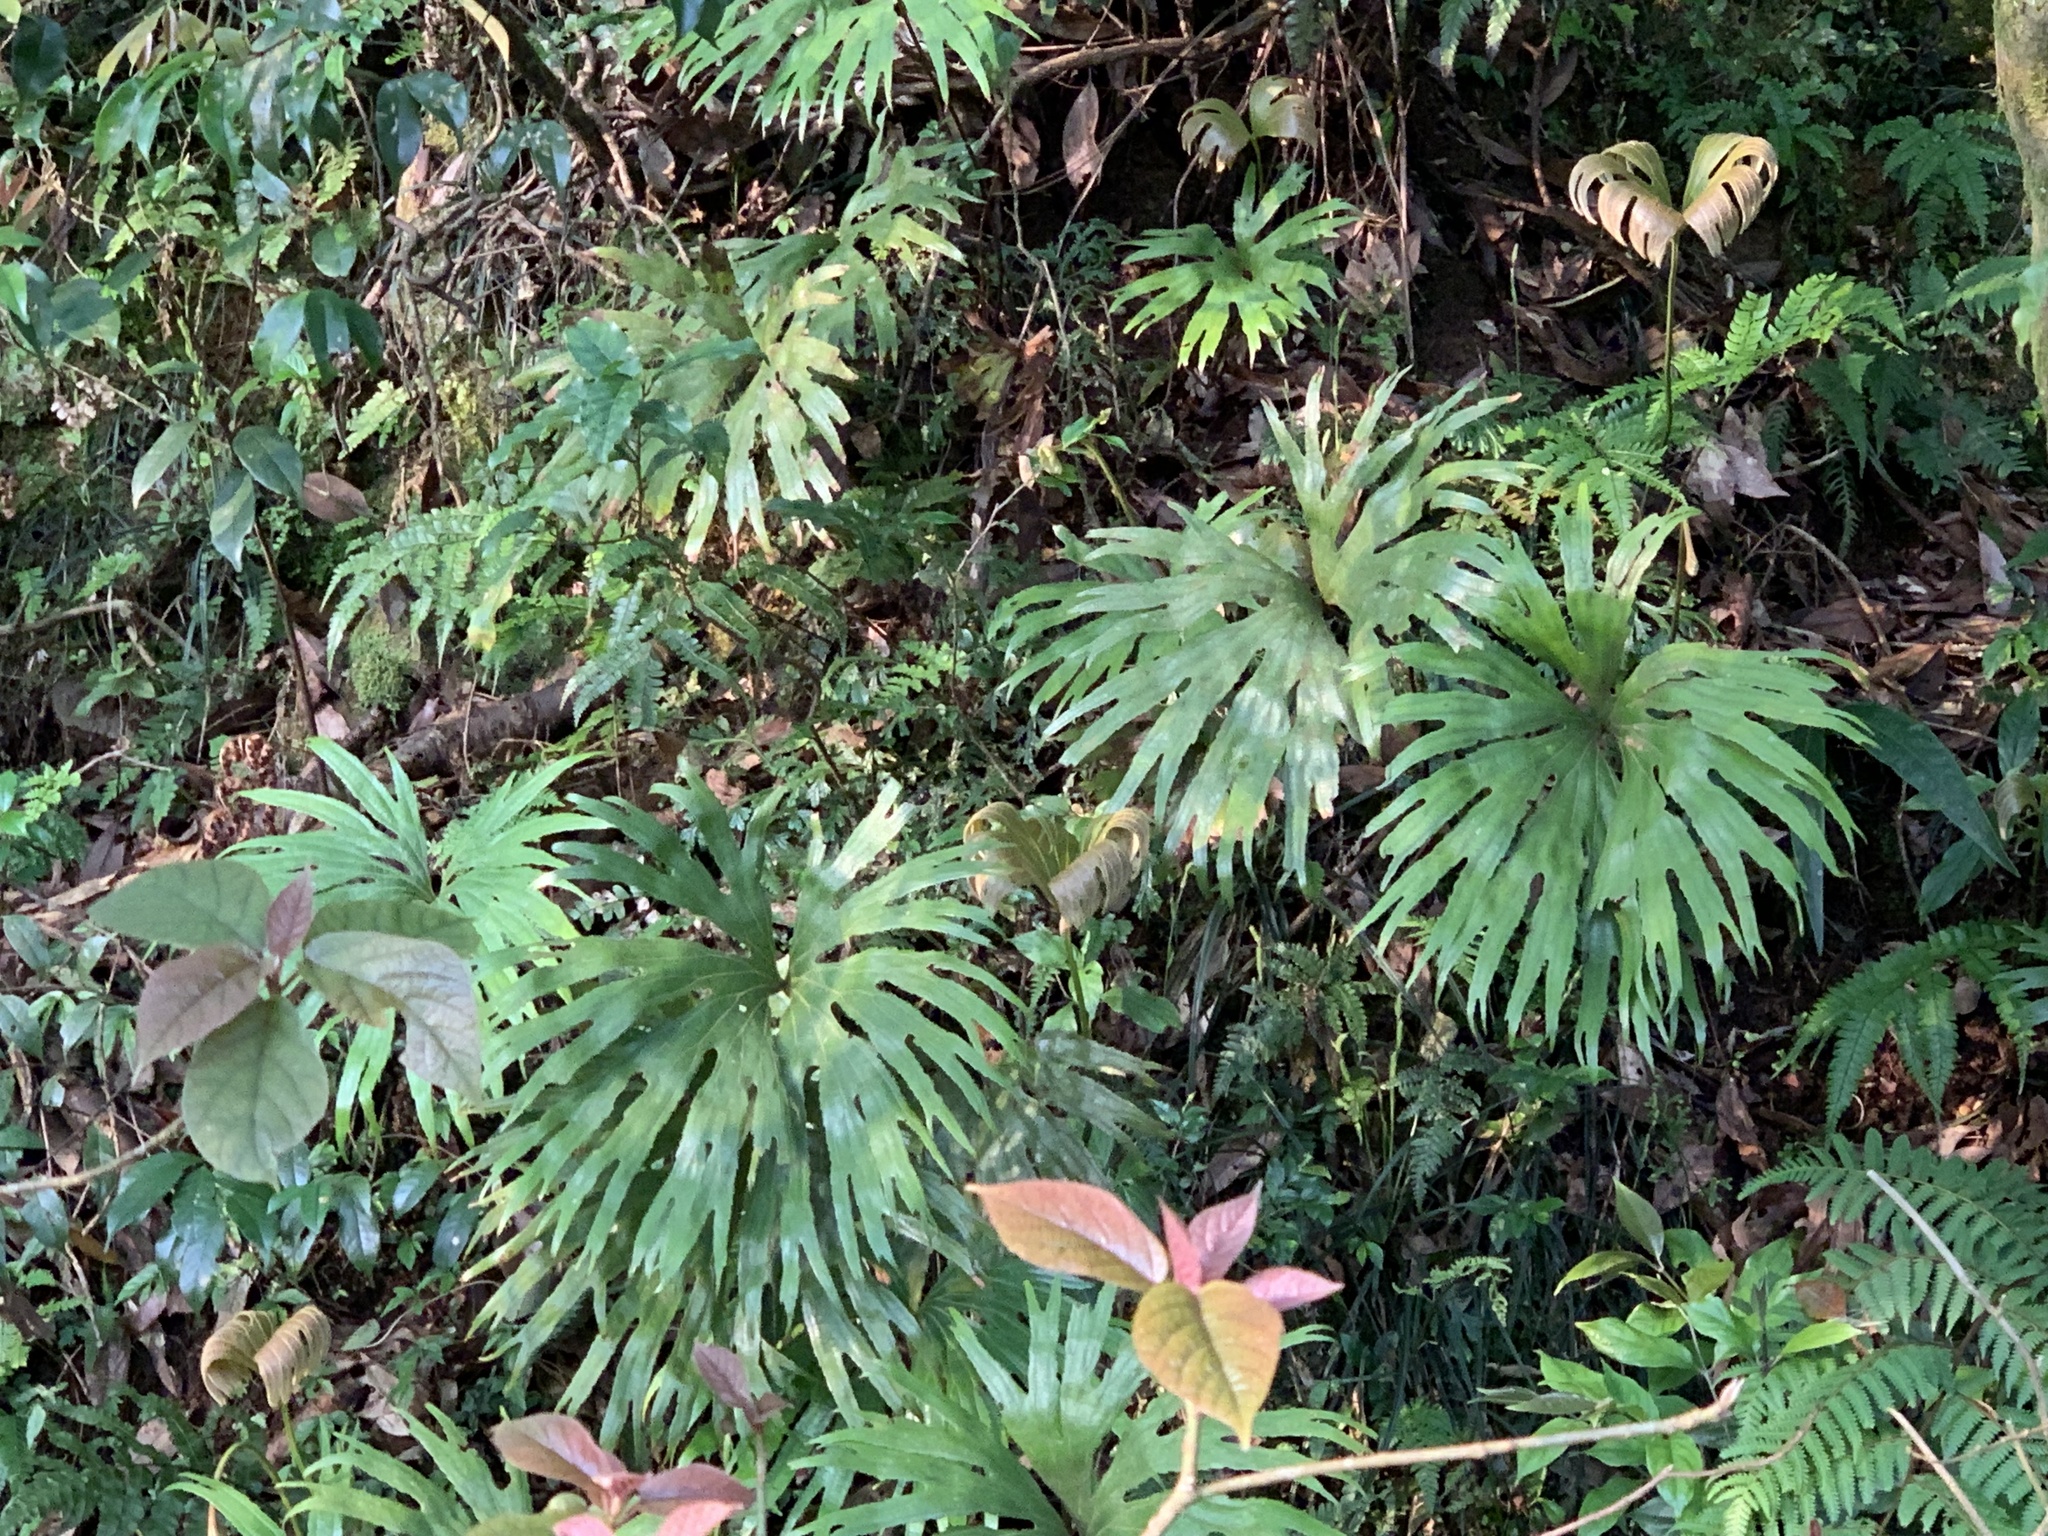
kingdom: Plantae
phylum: Tracheophyta
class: Polypodiopsida
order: Gleicheniales
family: Dipteridaceae
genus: Dipteris
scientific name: Dipteris conjugata
